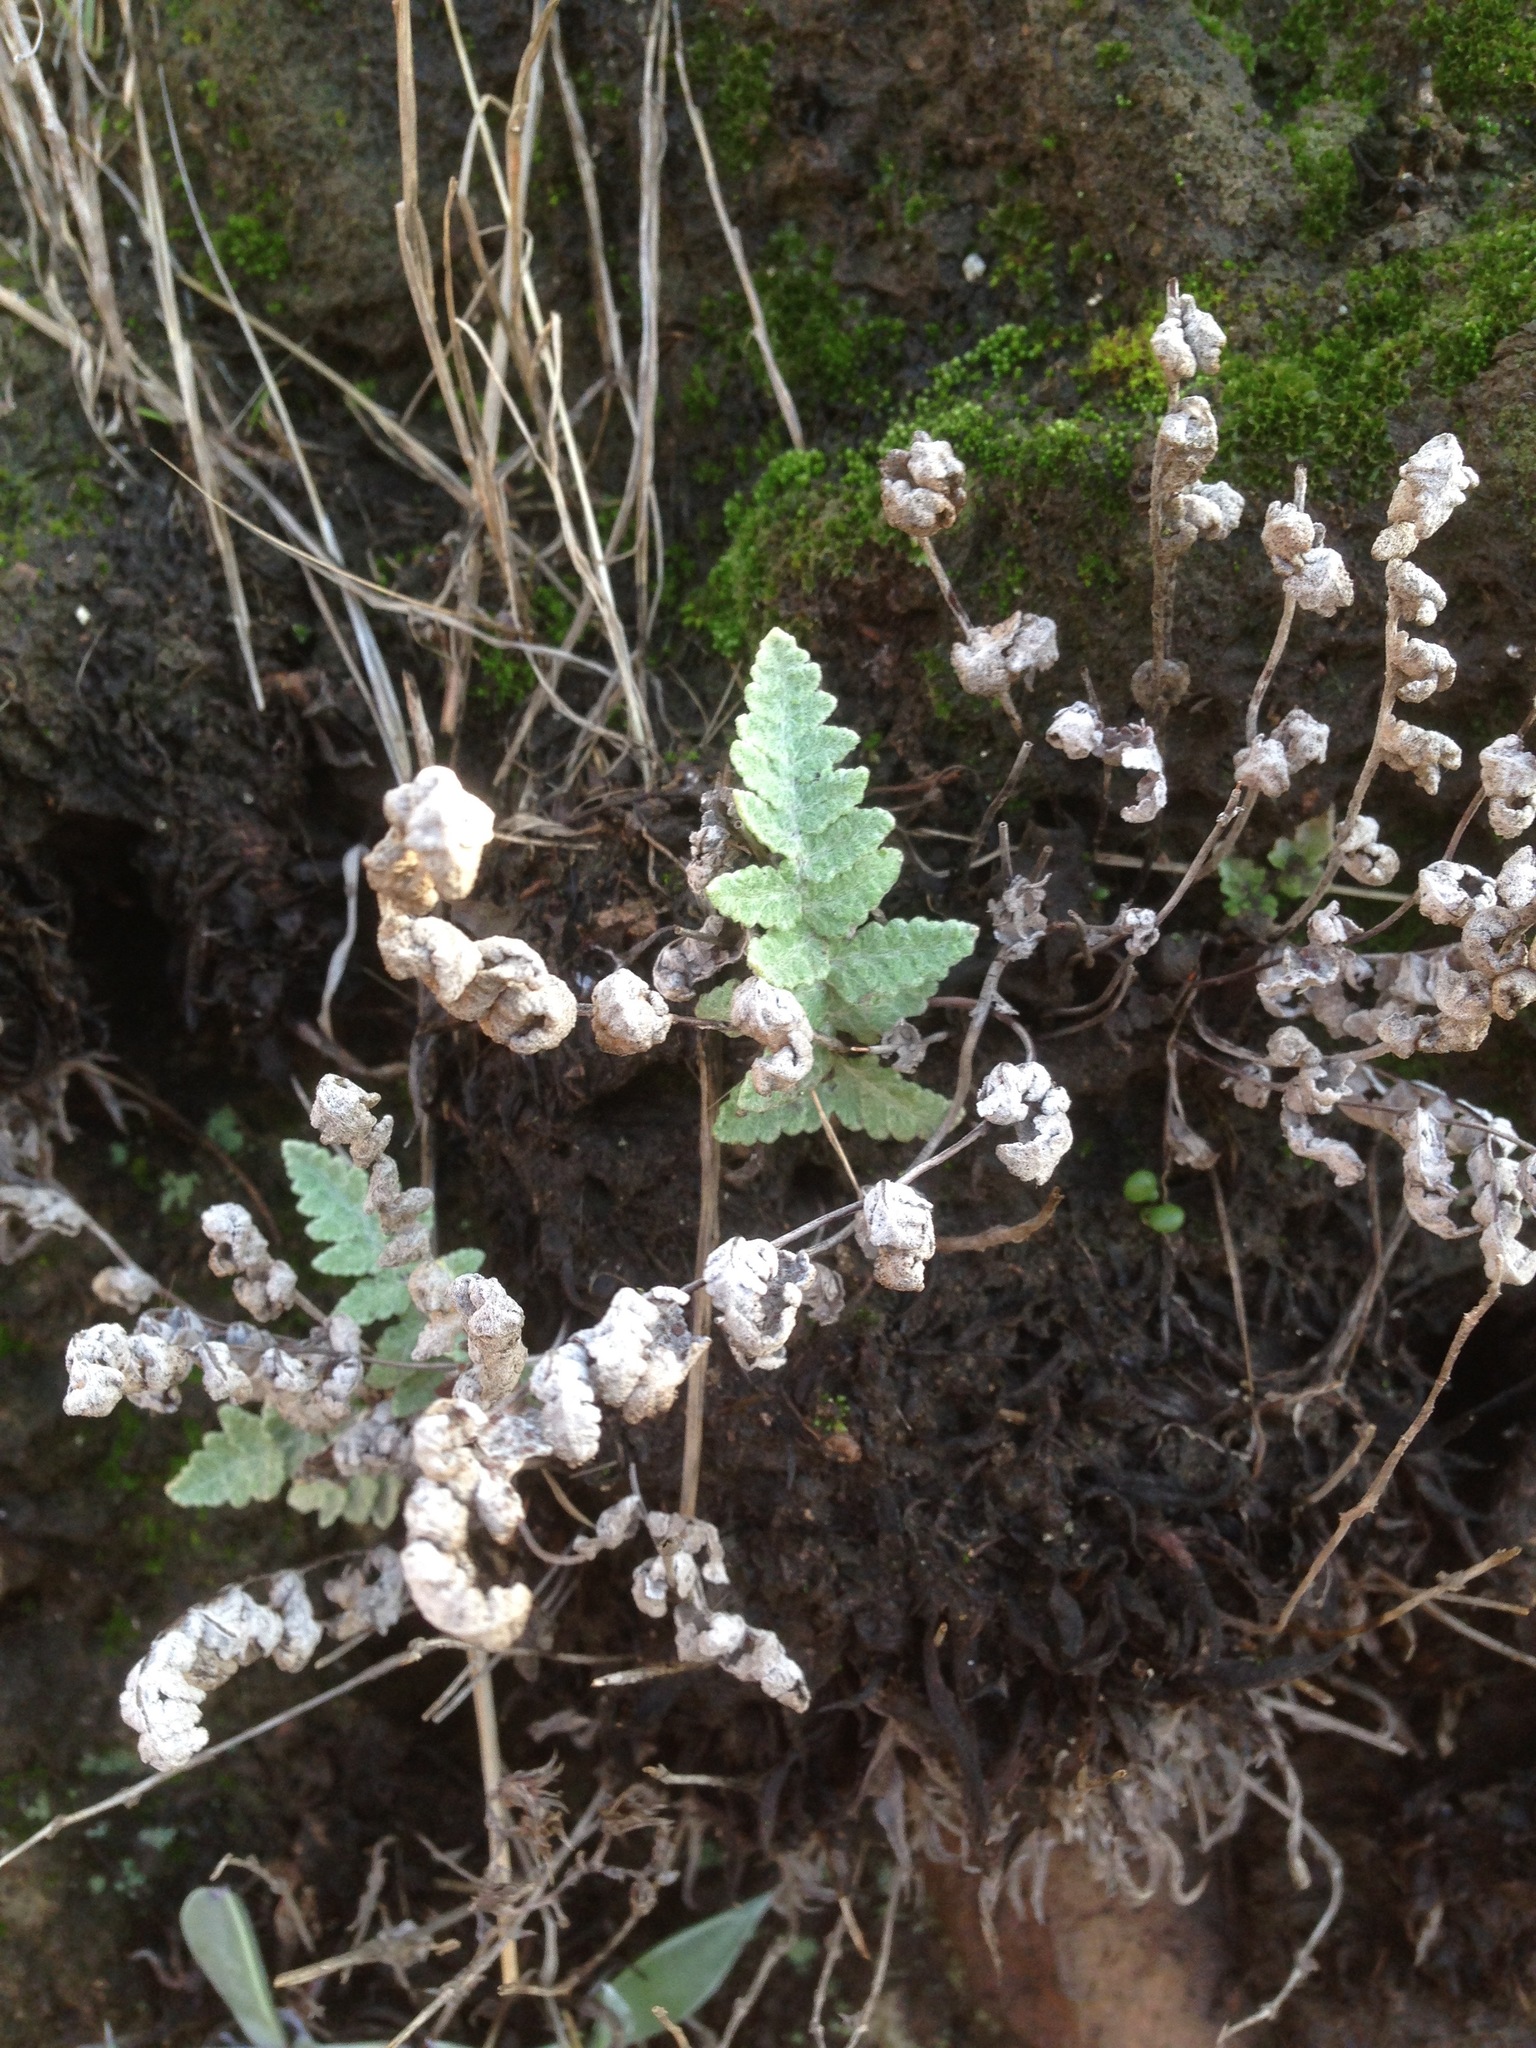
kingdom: Plantae
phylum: Tracheophyta
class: Polypodiopsida
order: Polypodiales
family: Pteridaceae
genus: Myriopteris
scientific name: Myriopteris newberryi
